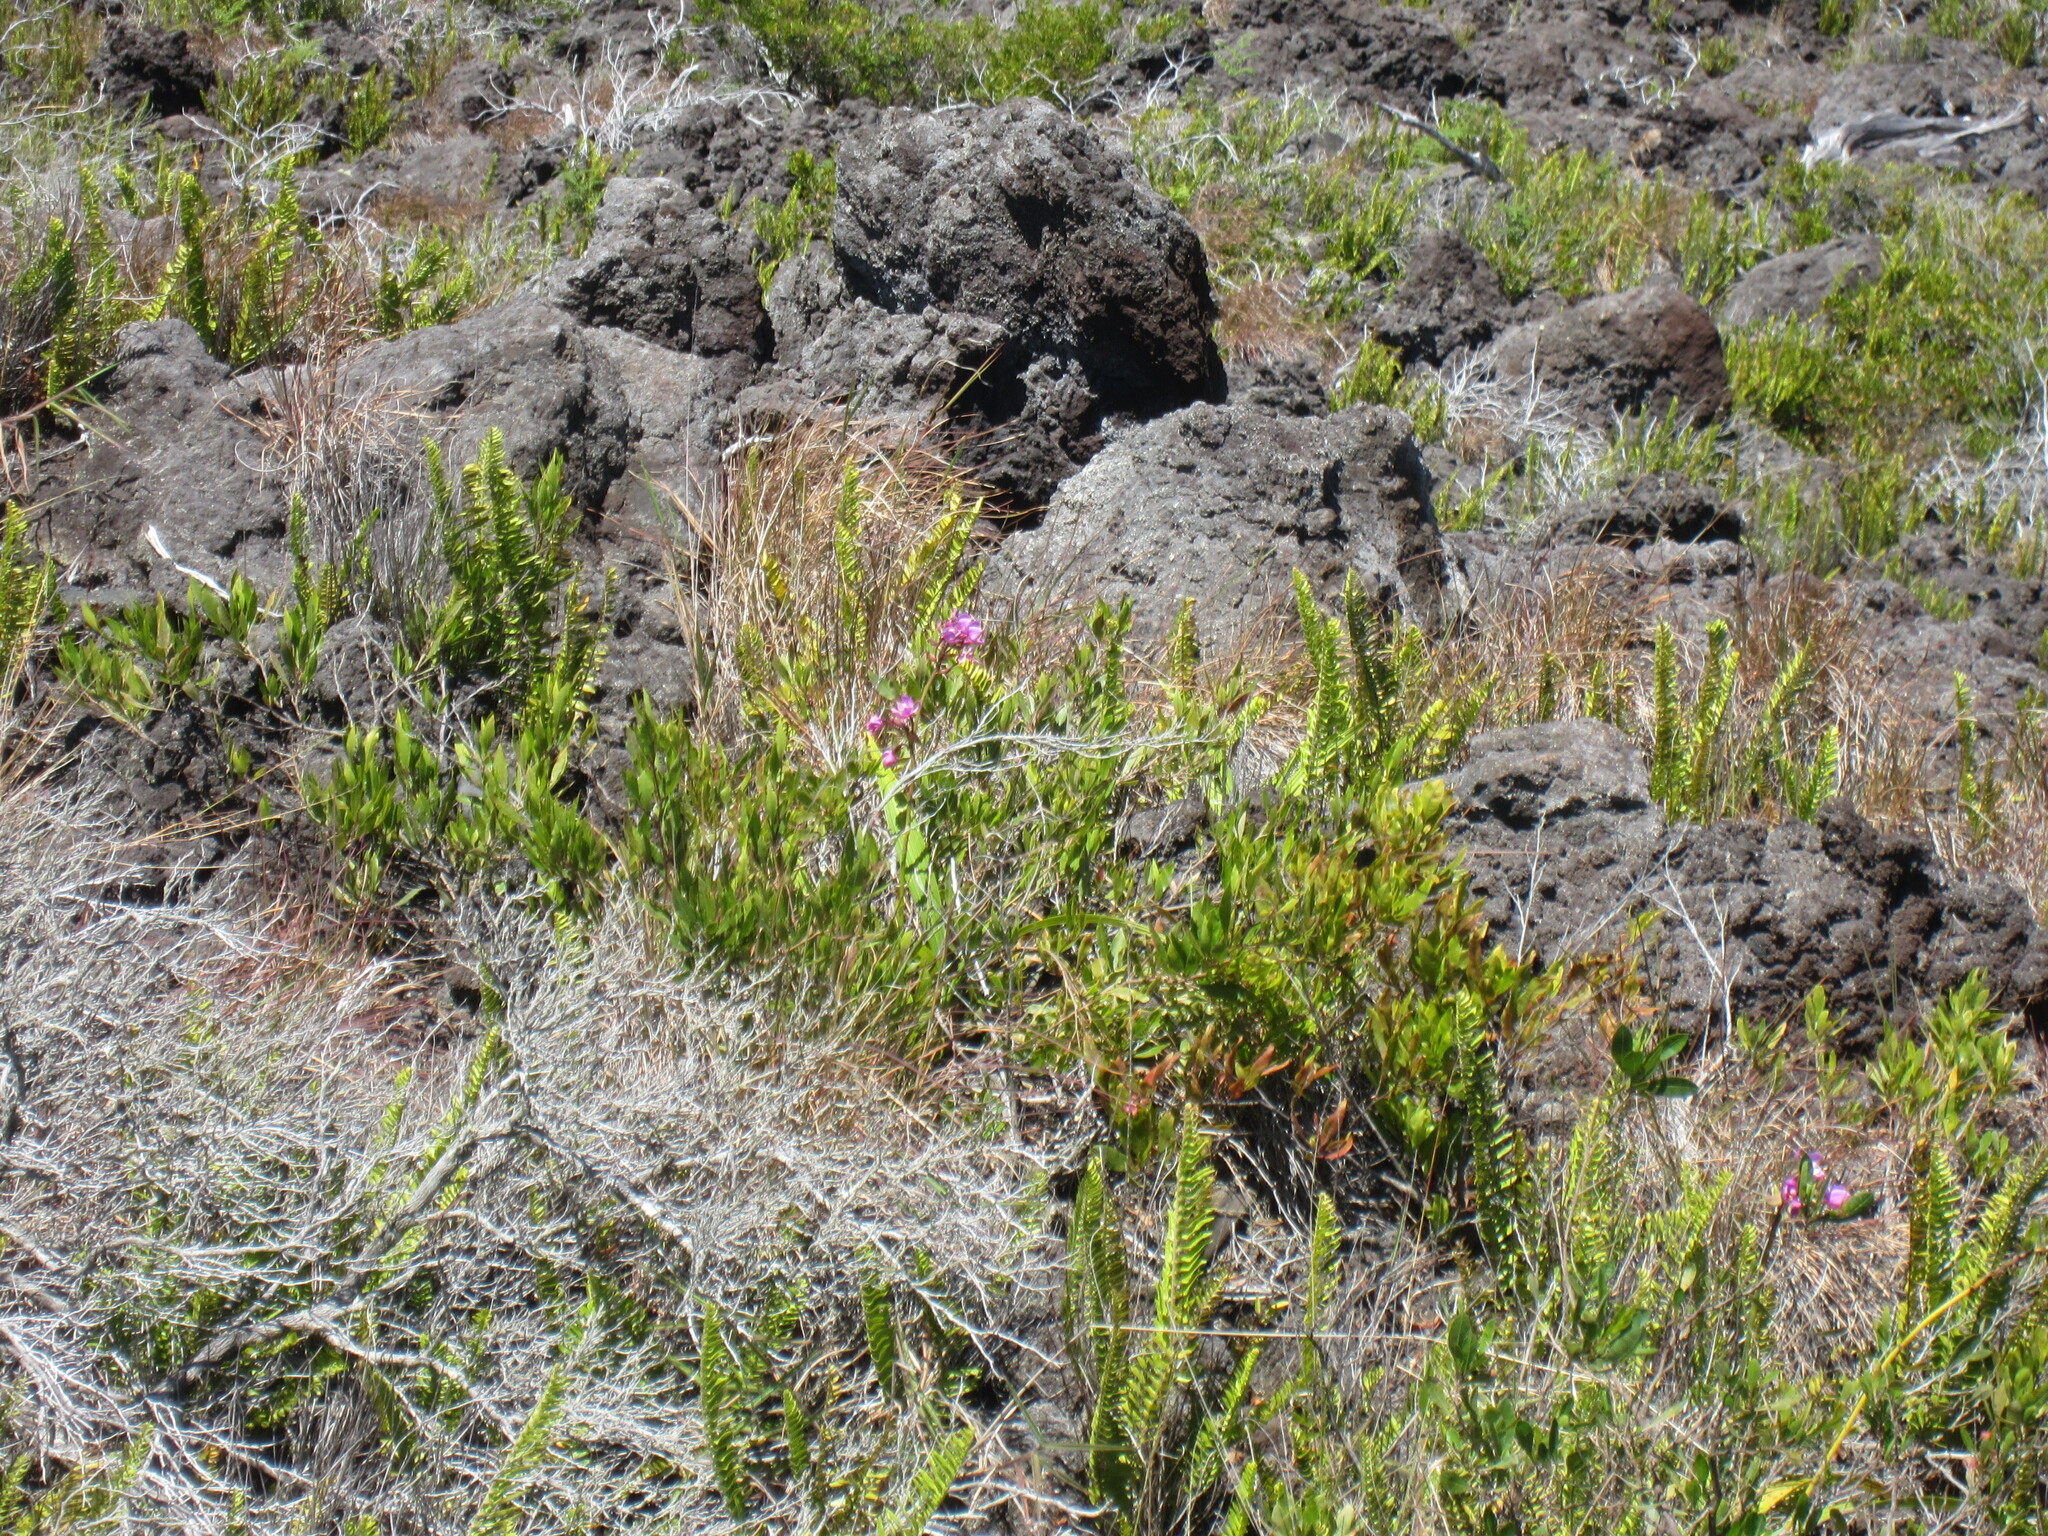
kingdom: Plantae
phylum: Tracheophyta
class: Liliopsida
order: Asparagales
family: Orchidaceae
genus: Spathoglottis
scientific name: Spathoglottis plicata
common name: Philippine ground orchid
